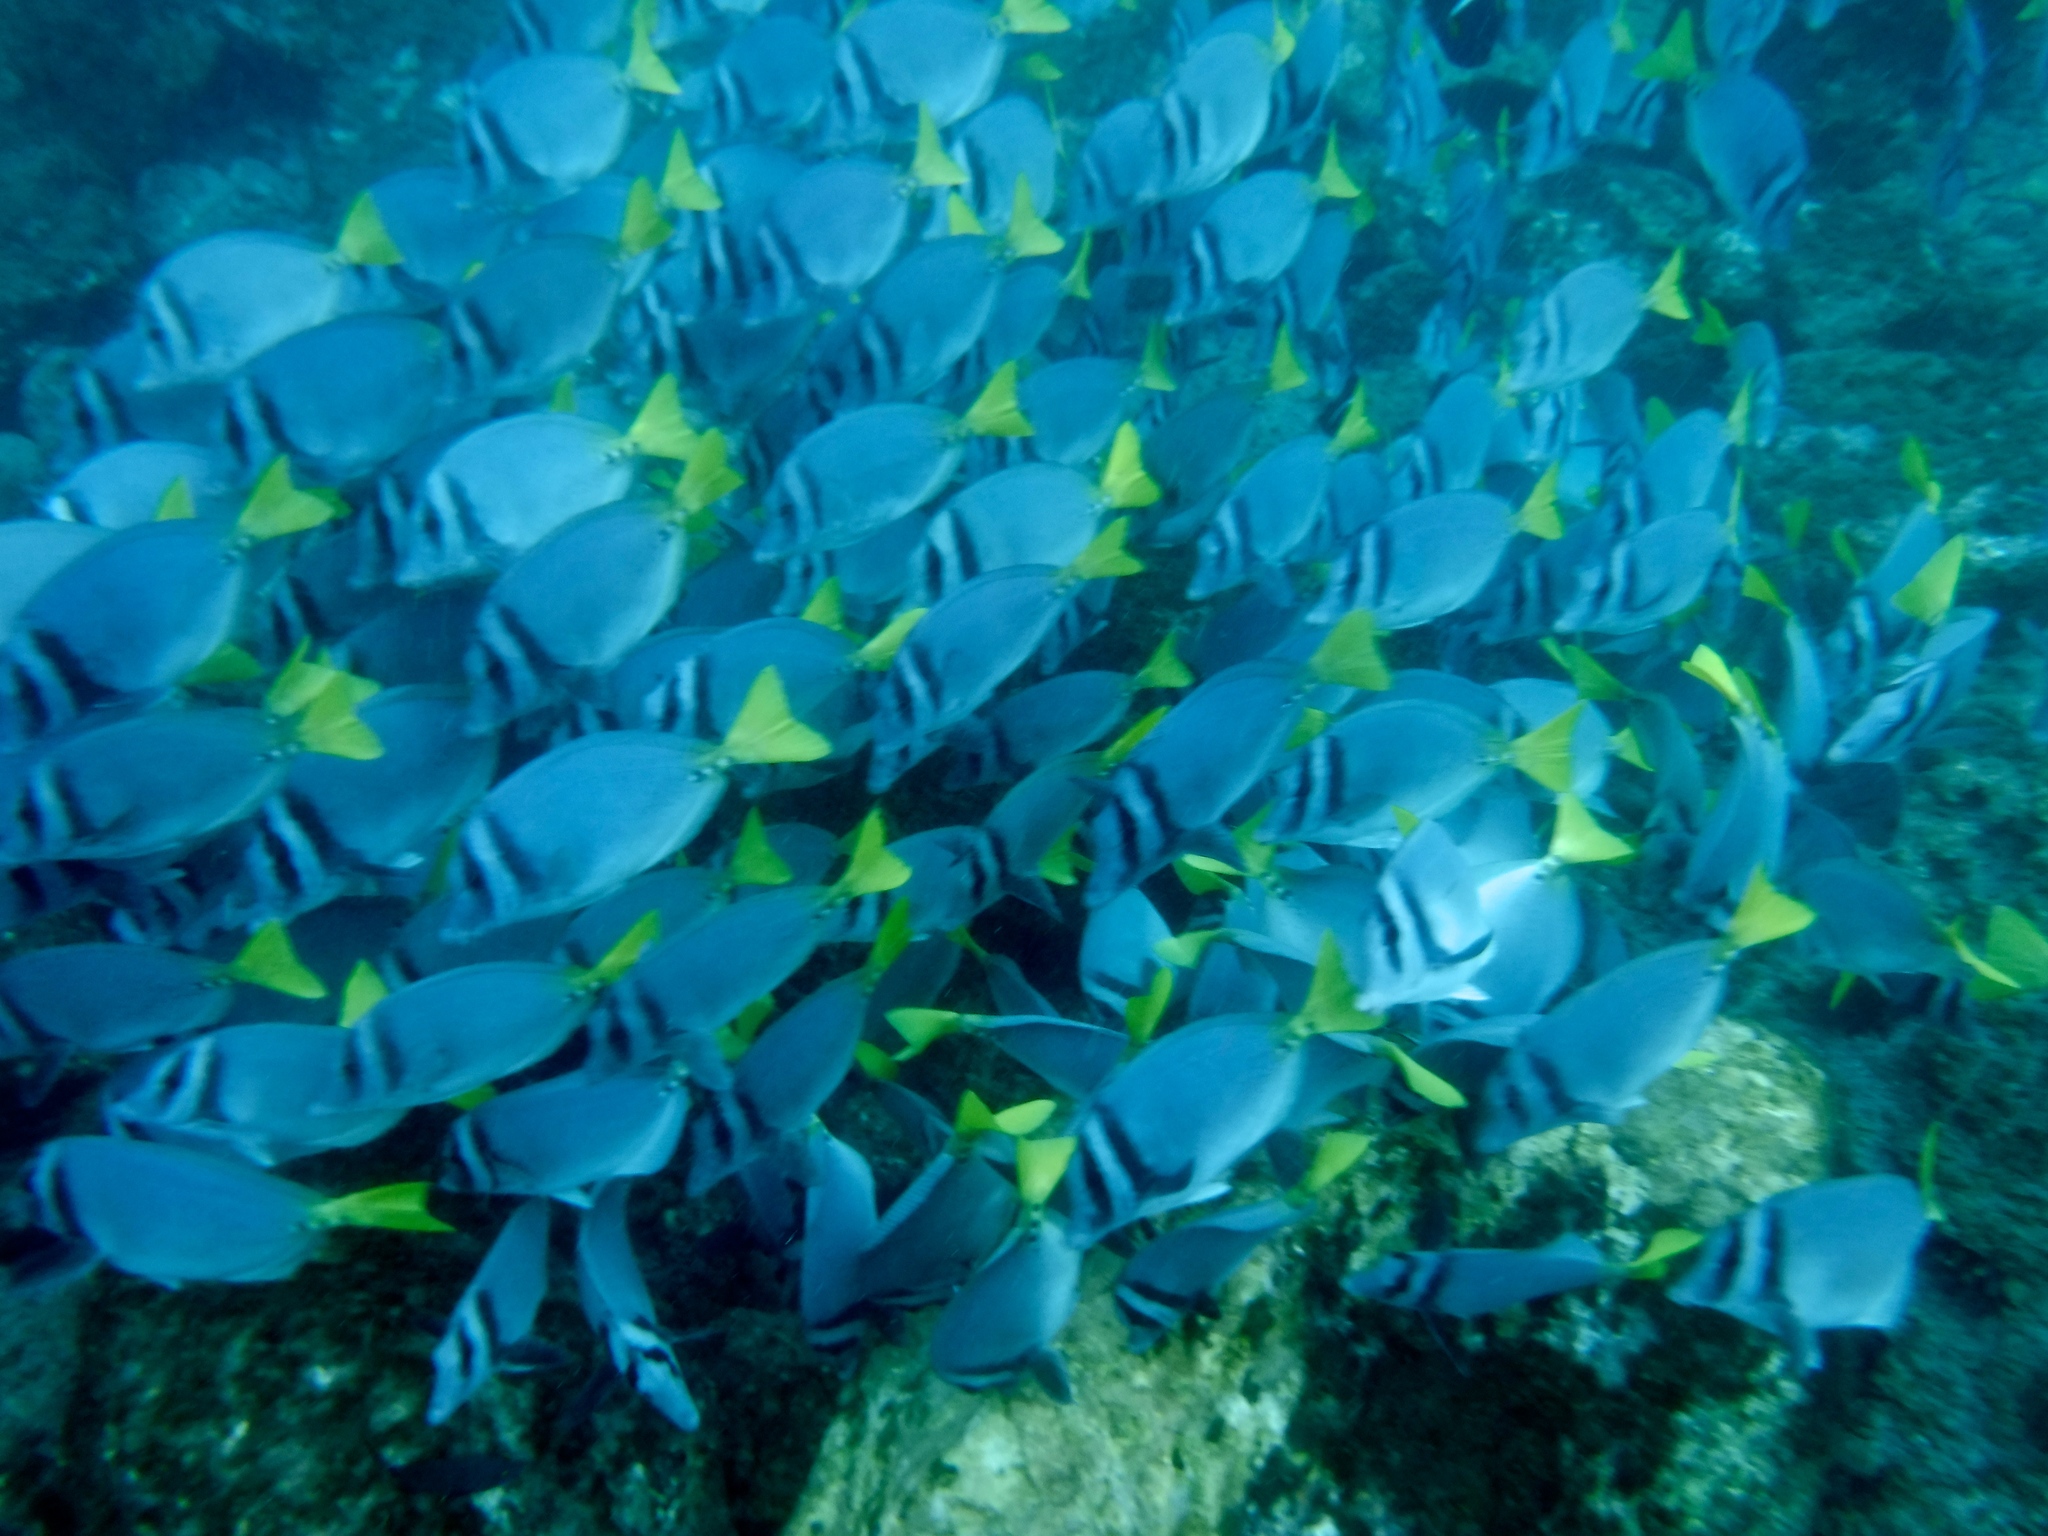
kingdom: Animalia
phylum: Chordata
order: Perciformes
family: Acanthuridae
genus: Prionurus
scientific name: Prionurus laticlavius
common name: Razor surgeonfish
